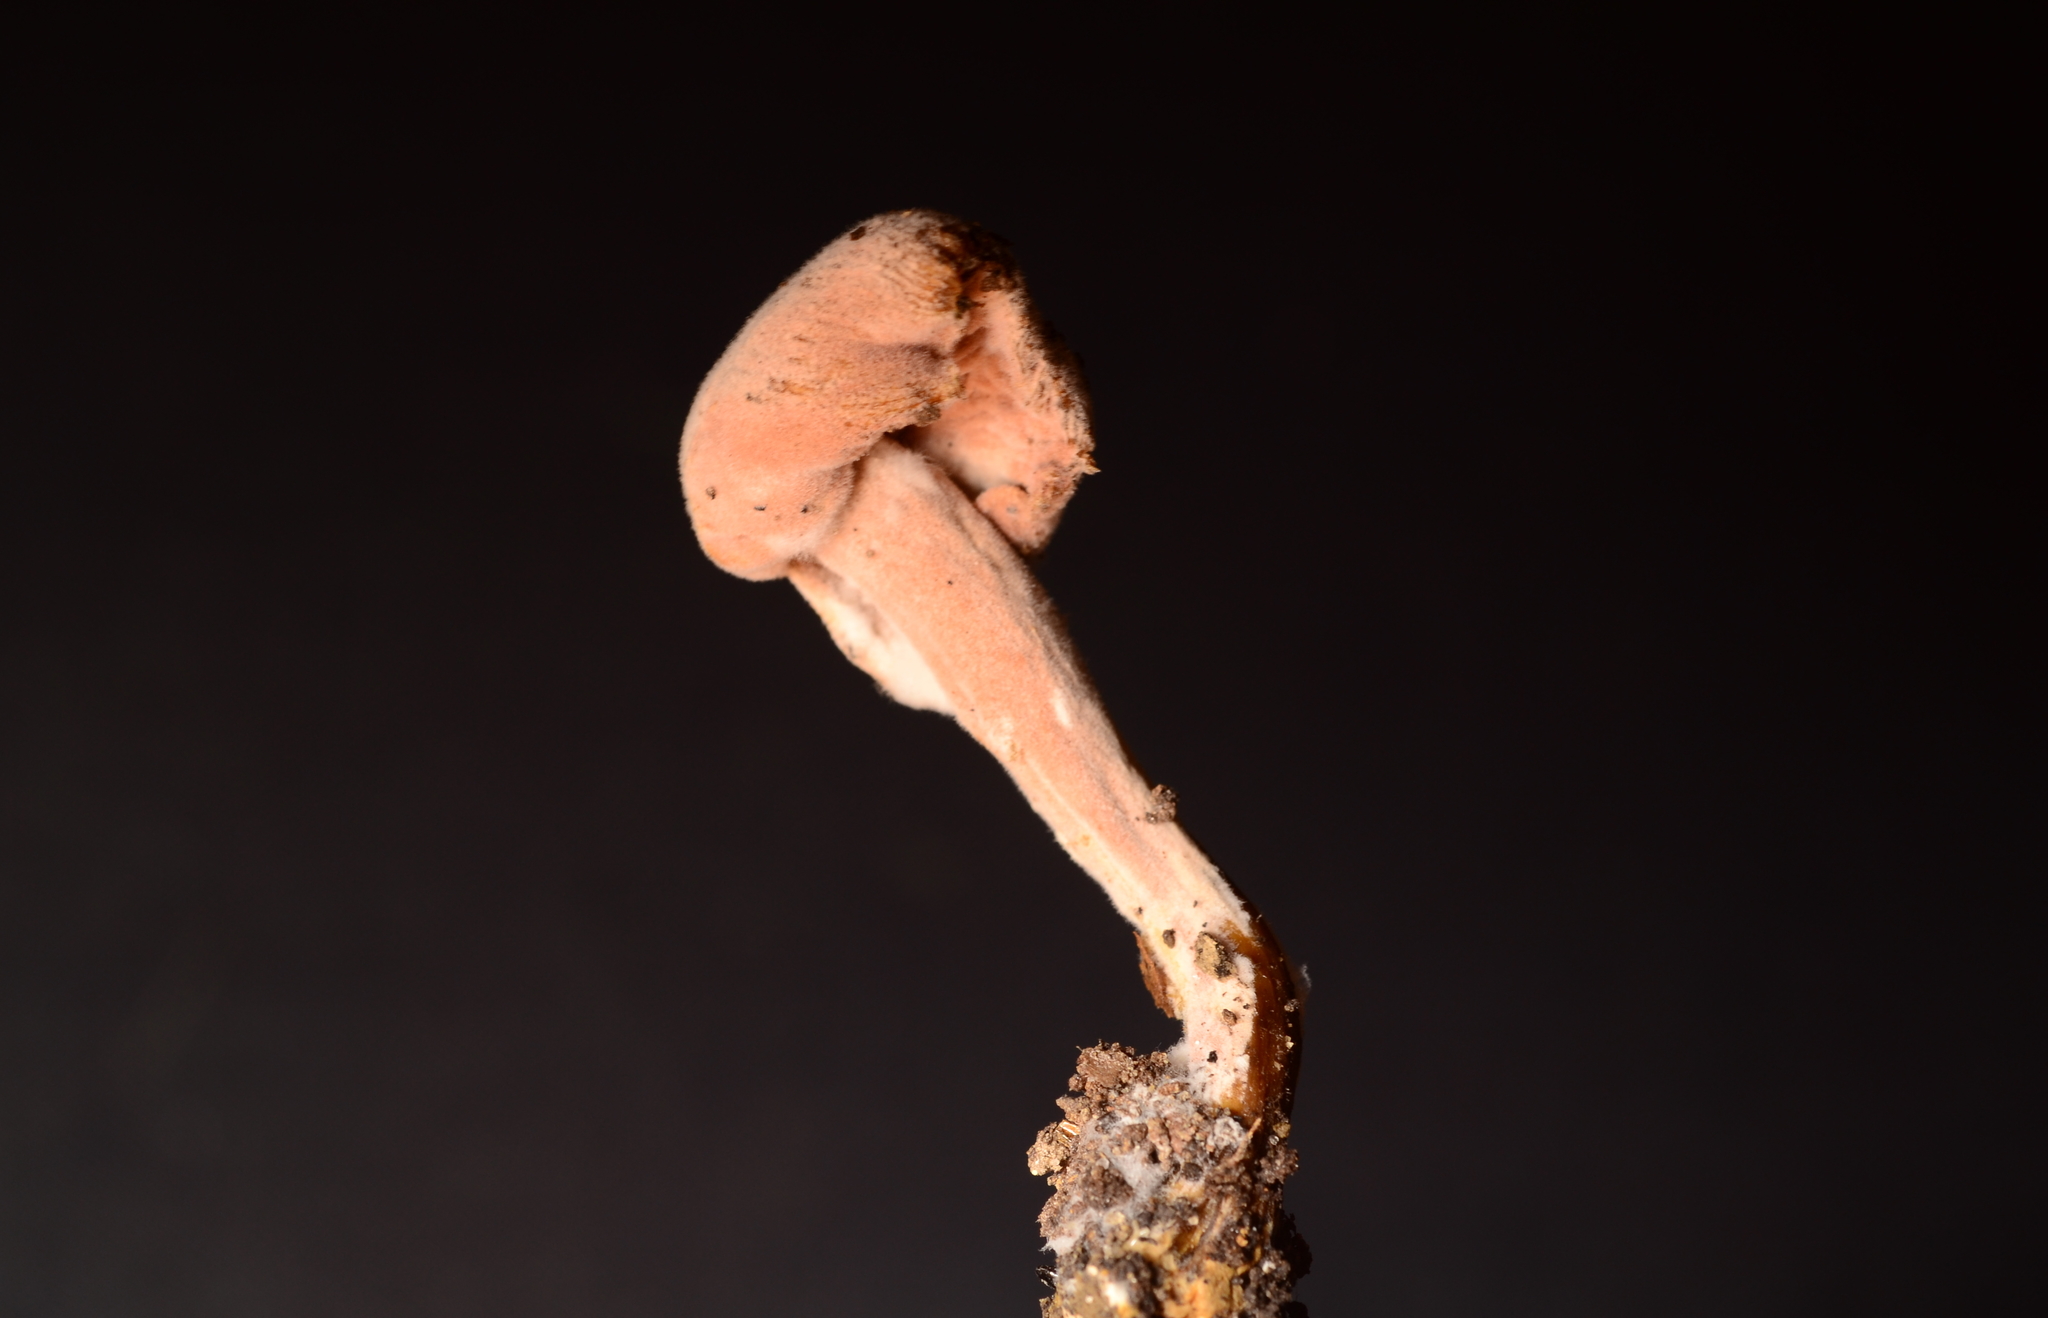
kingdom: Fungi
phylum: Ascomycota
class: Sordariomycetes
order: Hypocreales
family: Hypocreaceae
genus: Mycogone
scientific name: Mycogone rosea
